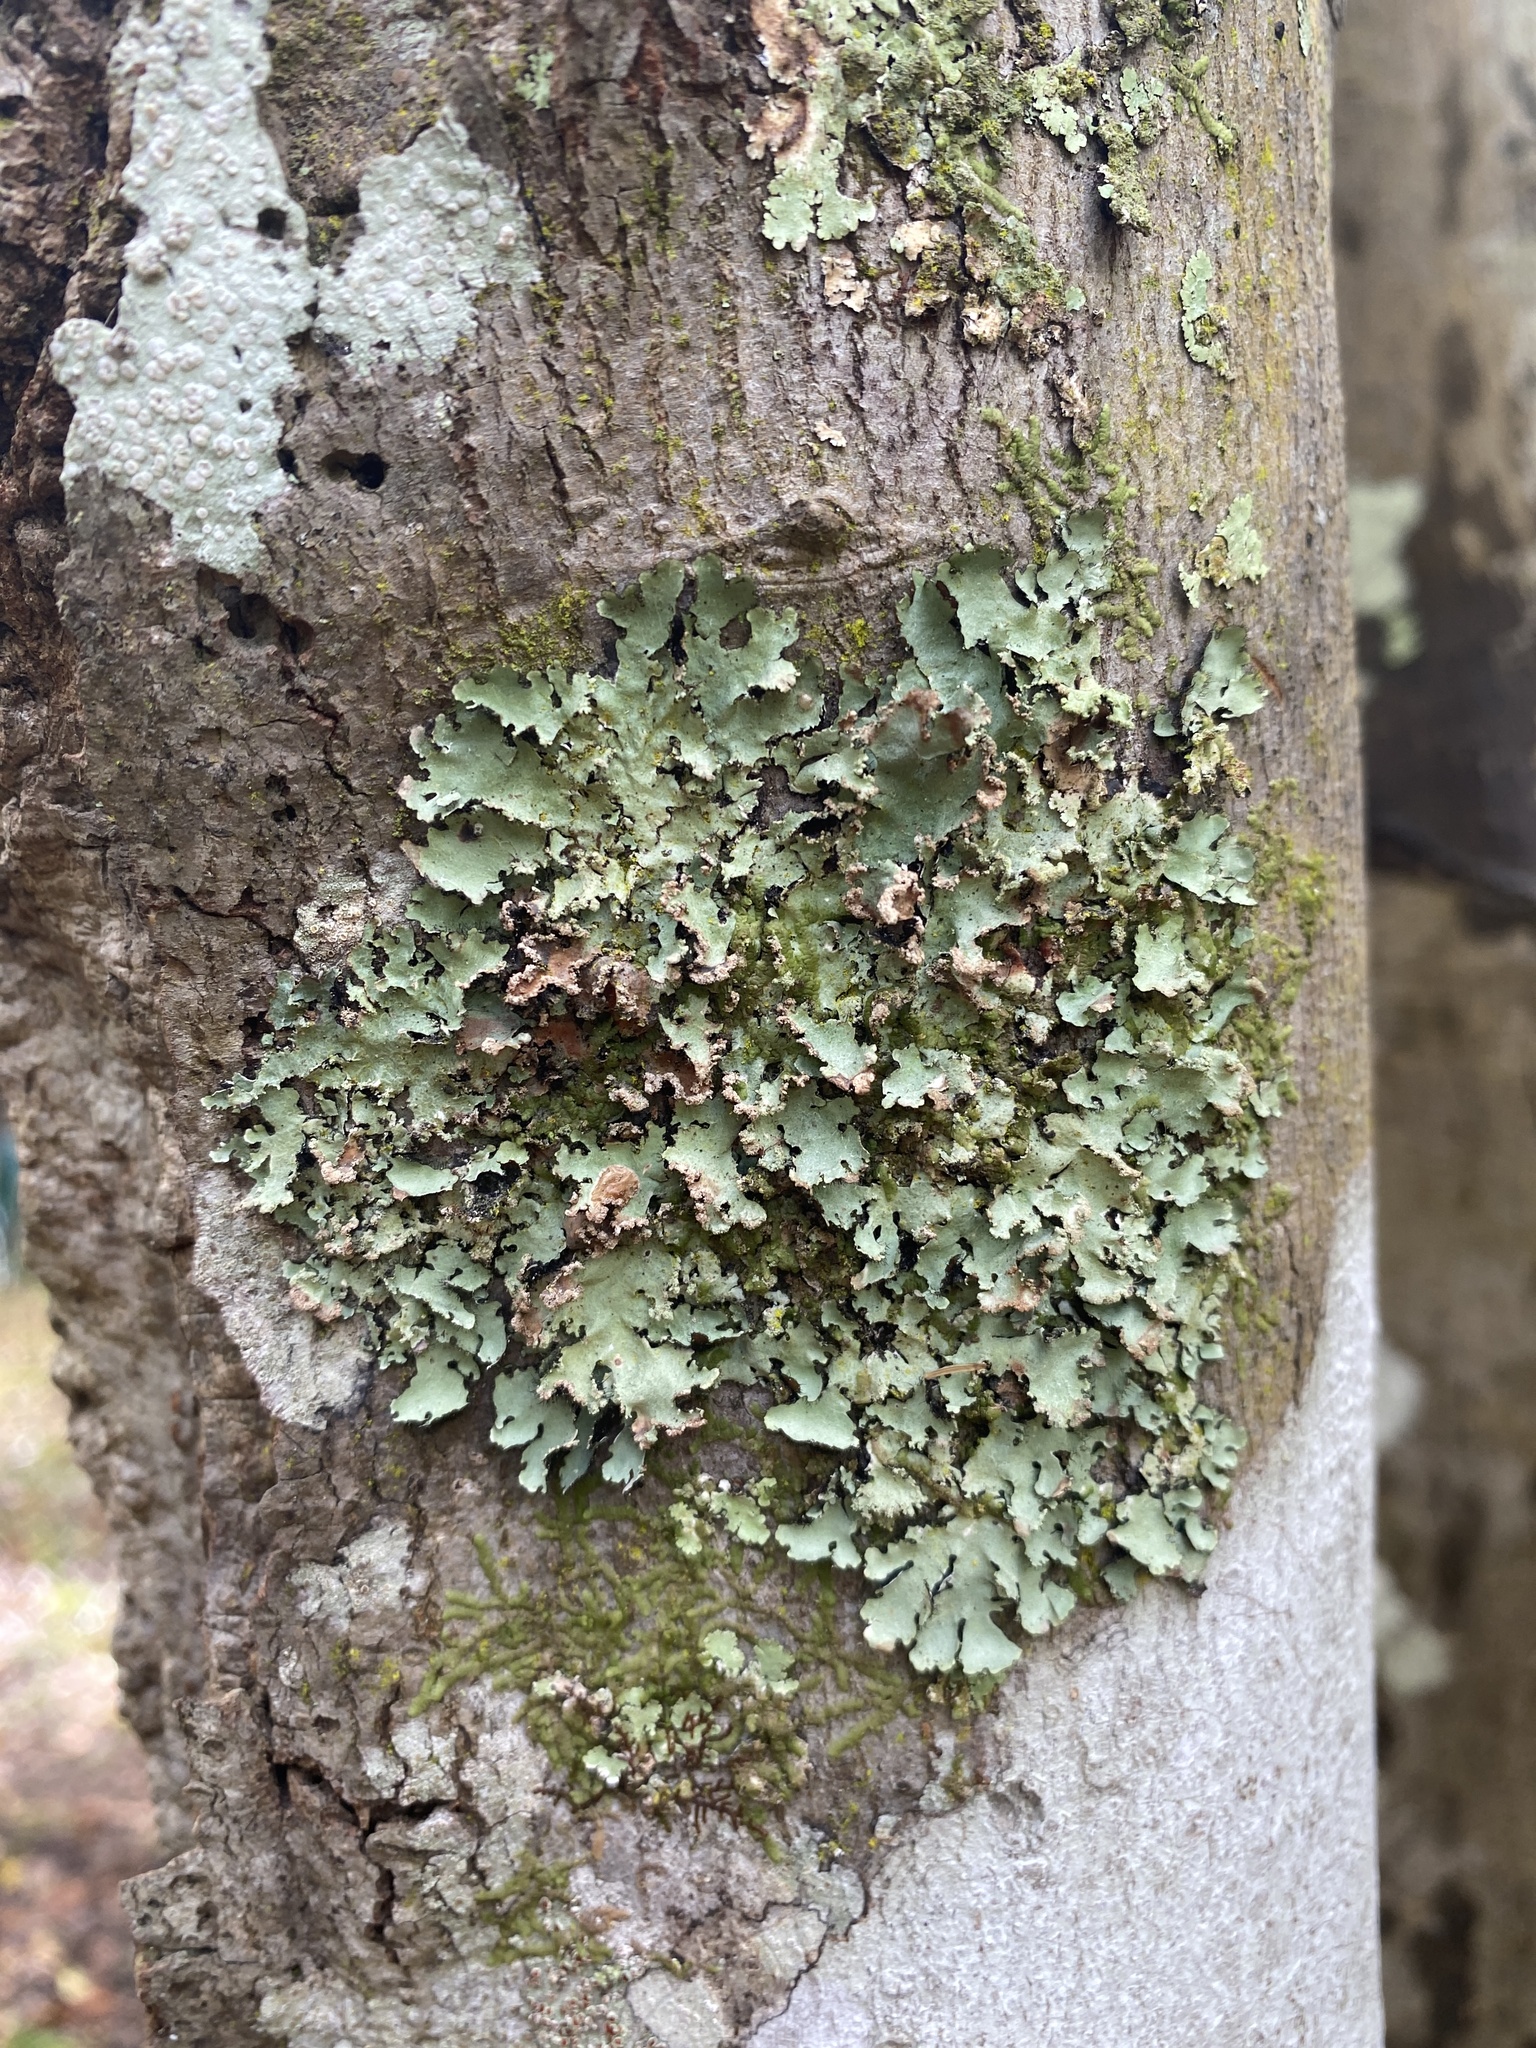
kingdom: Fungi
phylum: Ascomycota
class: Lecanoromycetes
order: Lecanorales
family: Parmeliaceae
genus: Rimelia
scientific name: Rimelia subisidiosa
